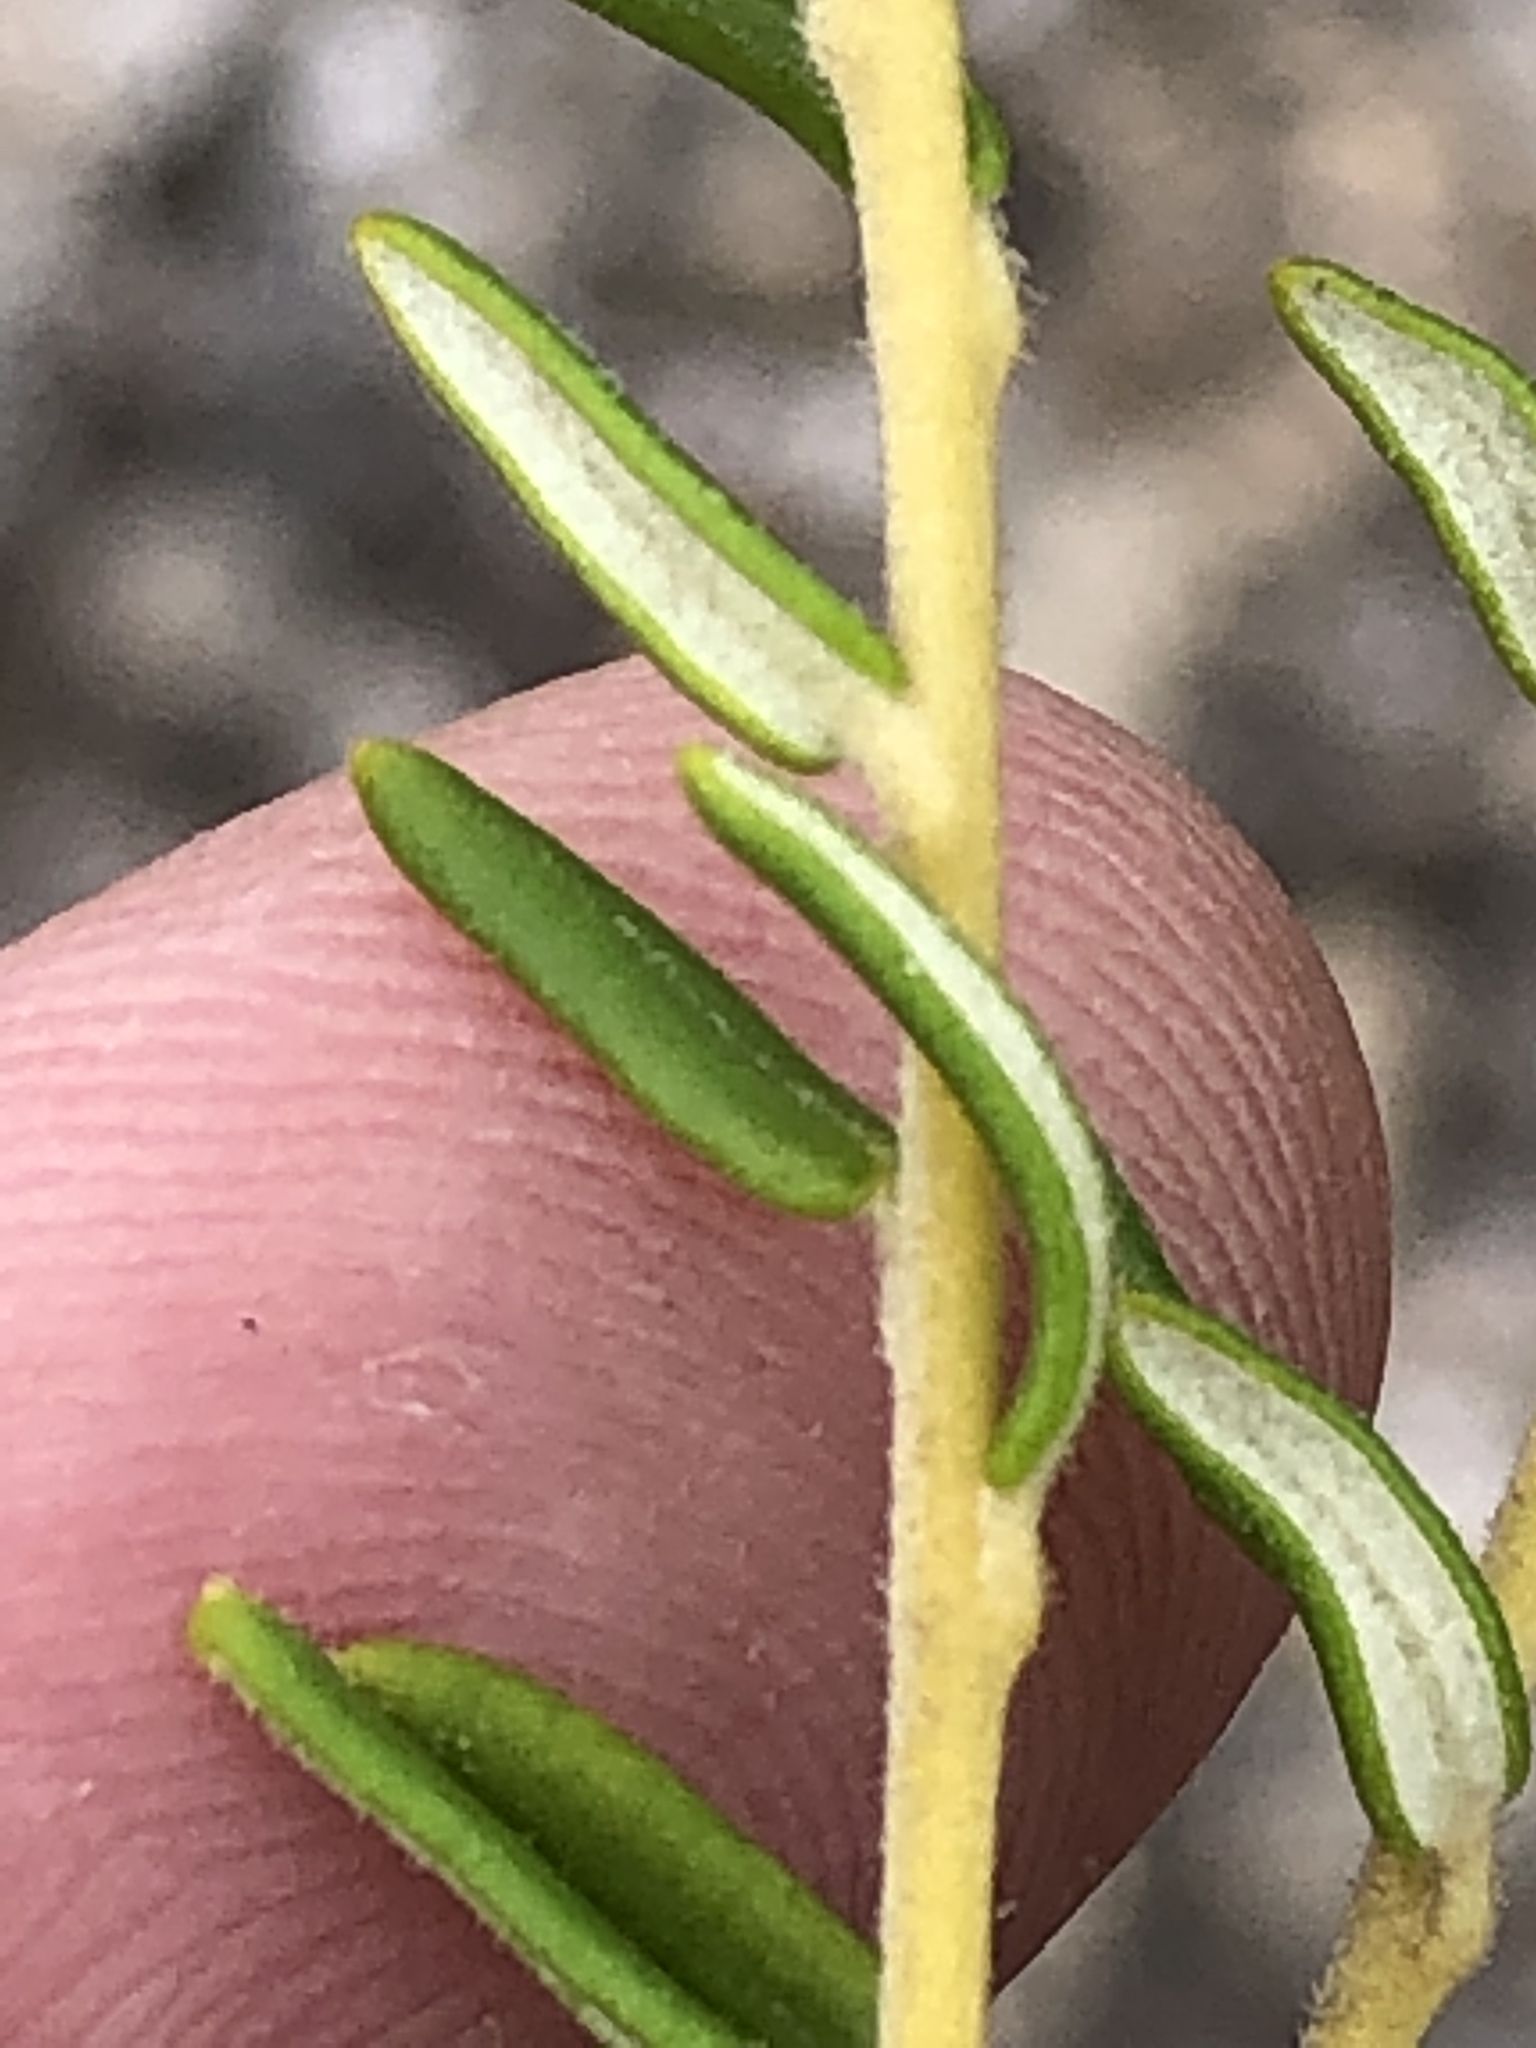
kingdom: Plantae
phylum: Tracheophyta
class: Magnoliopsida
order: Rosales
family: Rhamnaceae
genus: Phylica
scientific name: Phylica lasiocarpa
